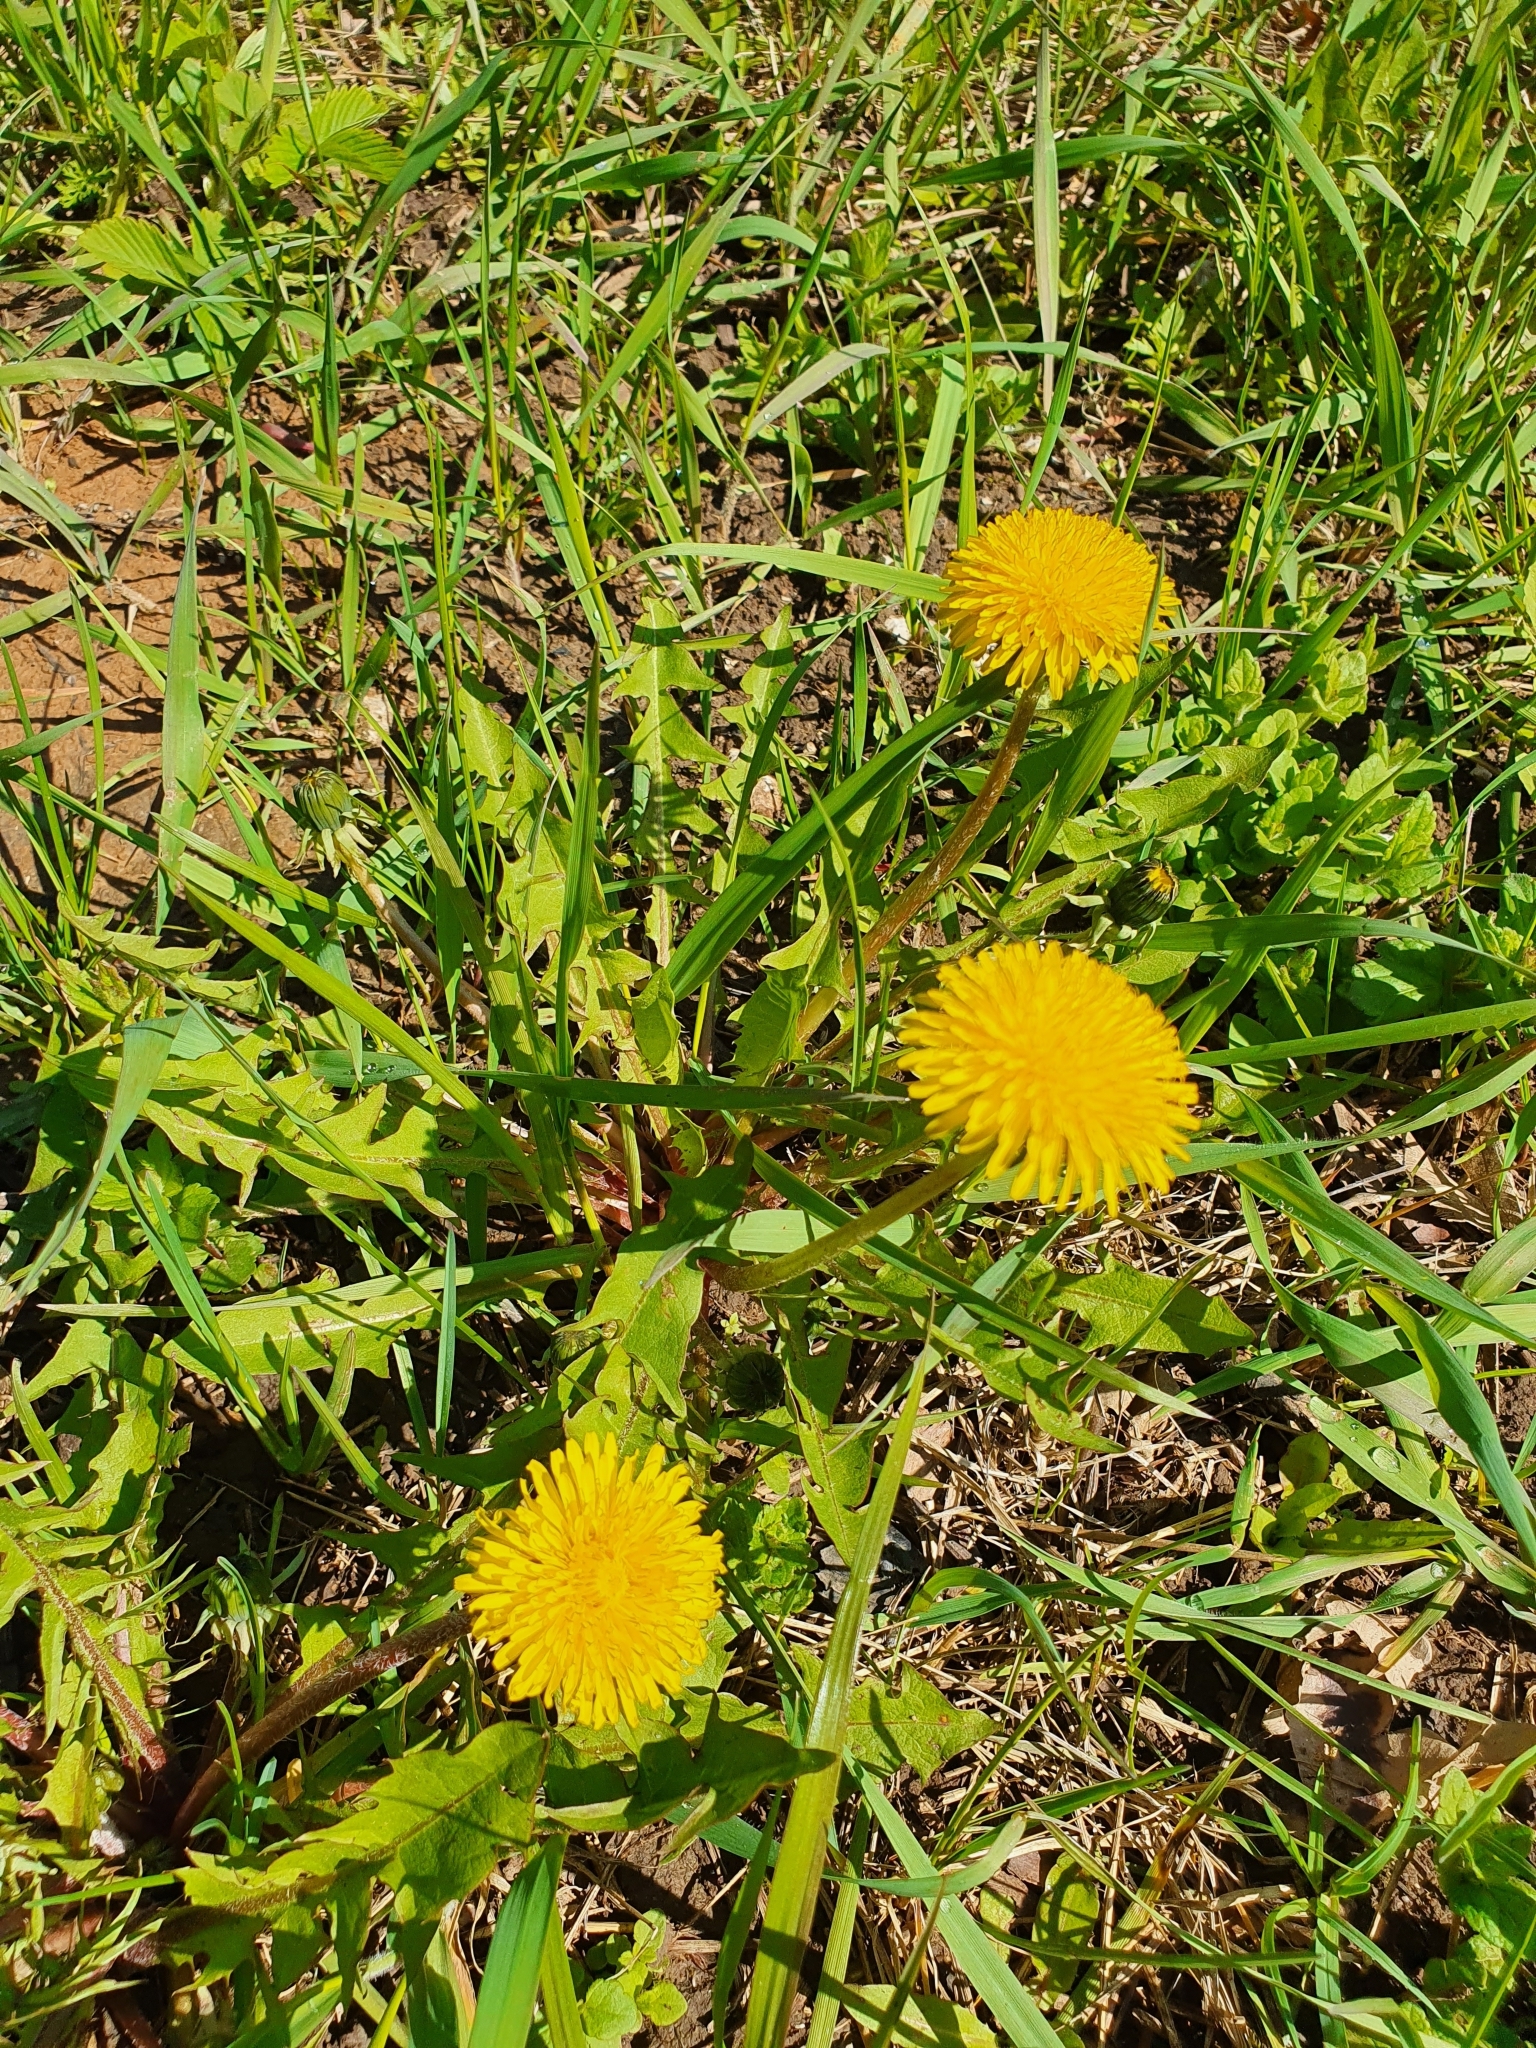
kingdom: Plantae
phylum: Tracheophyta
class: Magnoliopsida
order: Asterales
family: Asteraceae
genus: Taraxacum
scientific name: Taraxacum officinale
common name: Common dandelion
